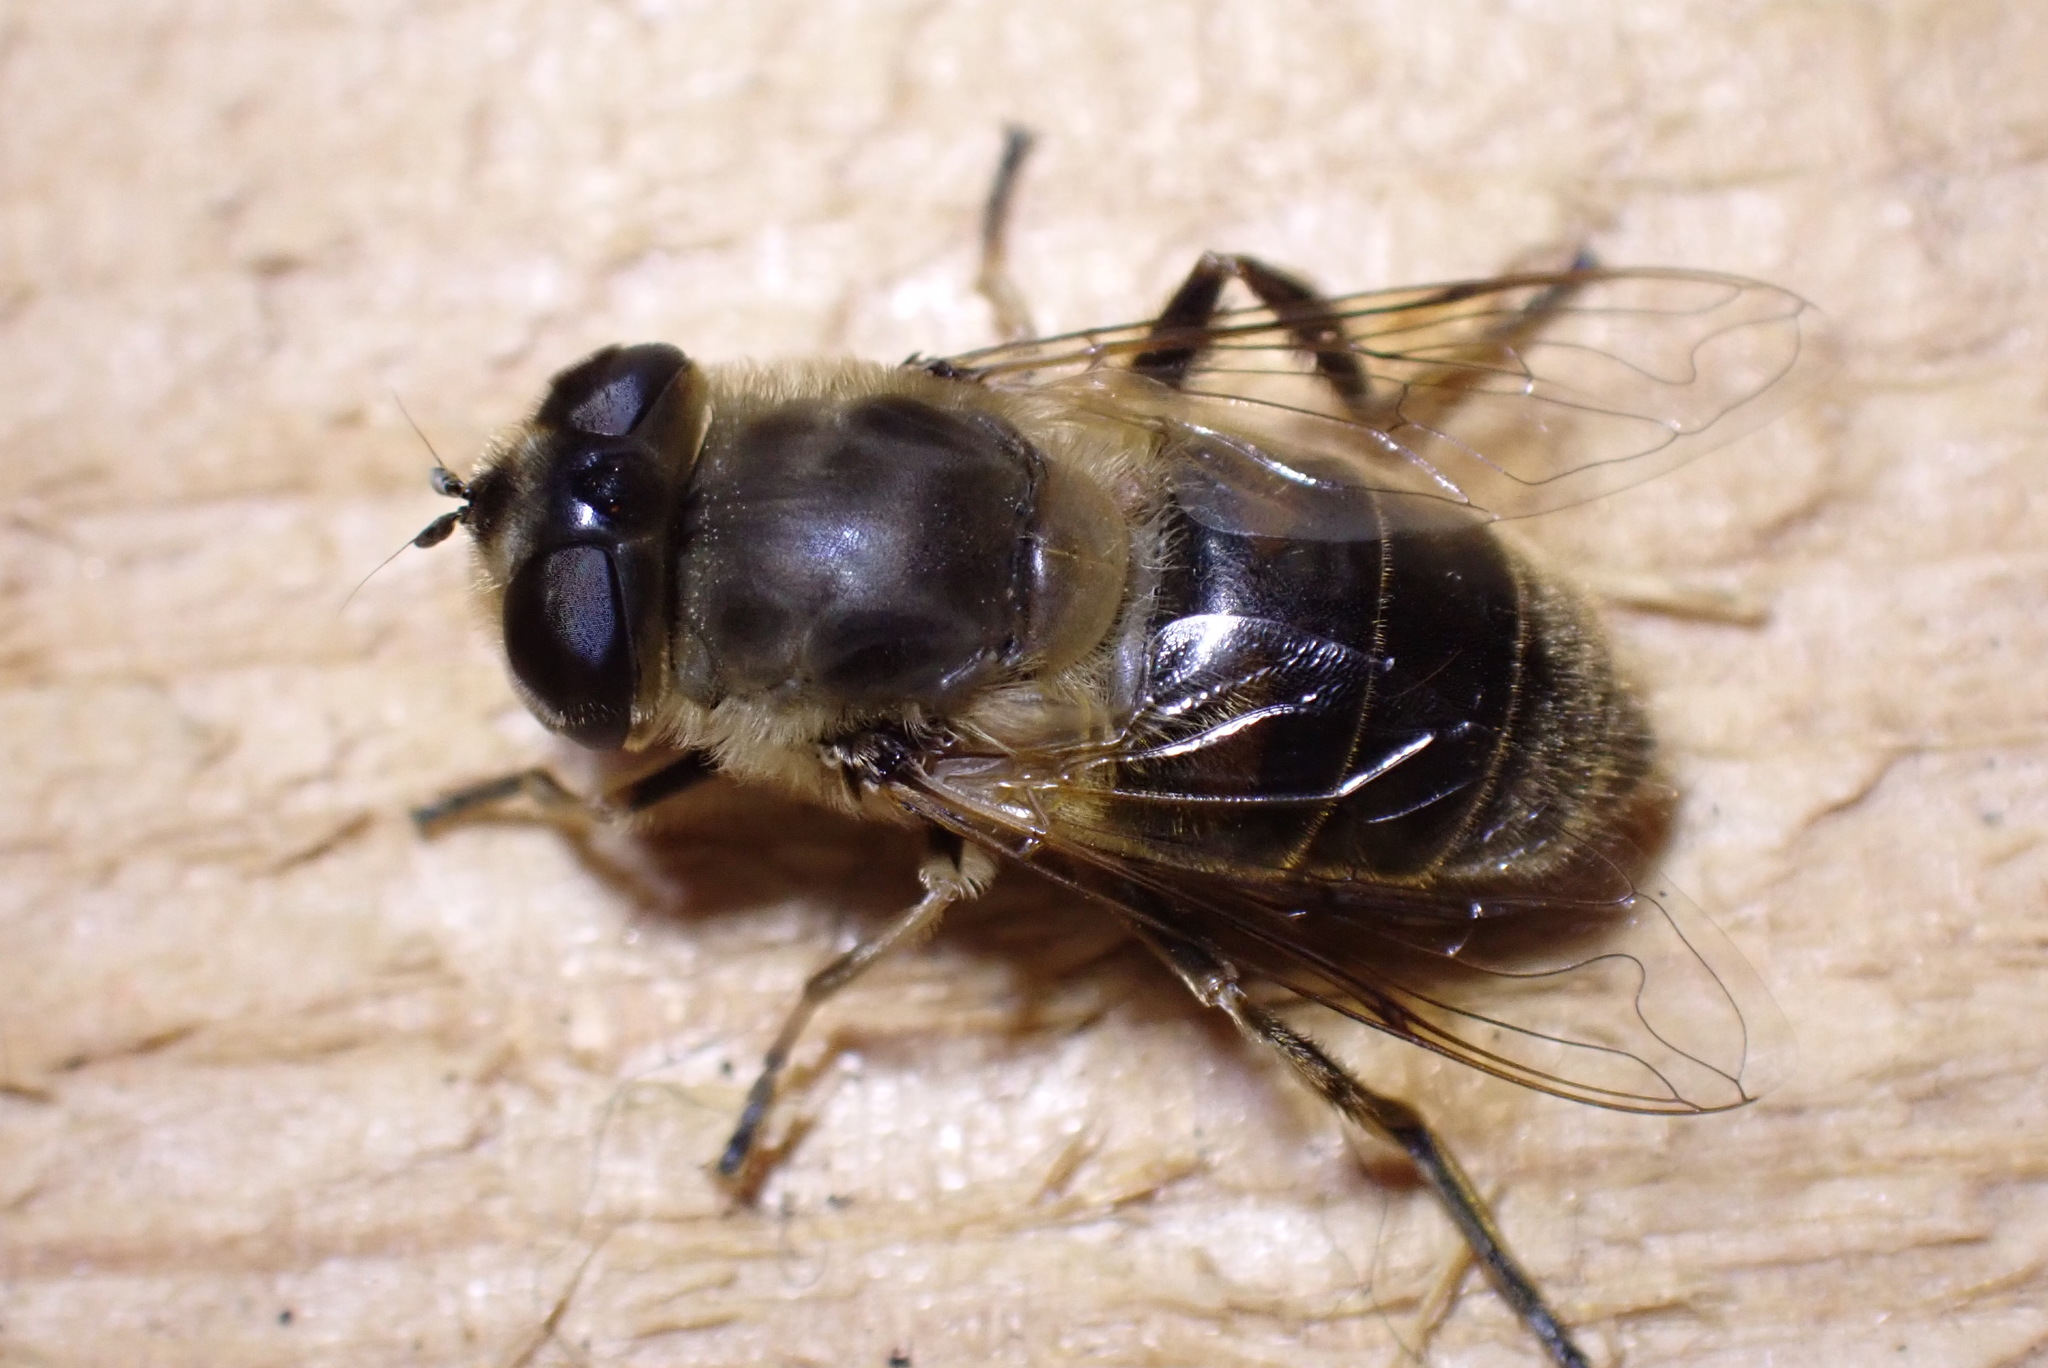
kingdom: Animalia
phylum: Arthropoda
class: Insecta
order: Diptera
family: Syrphidae
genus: Eristalis
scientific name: Eristalis tenax
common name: Drone fly
